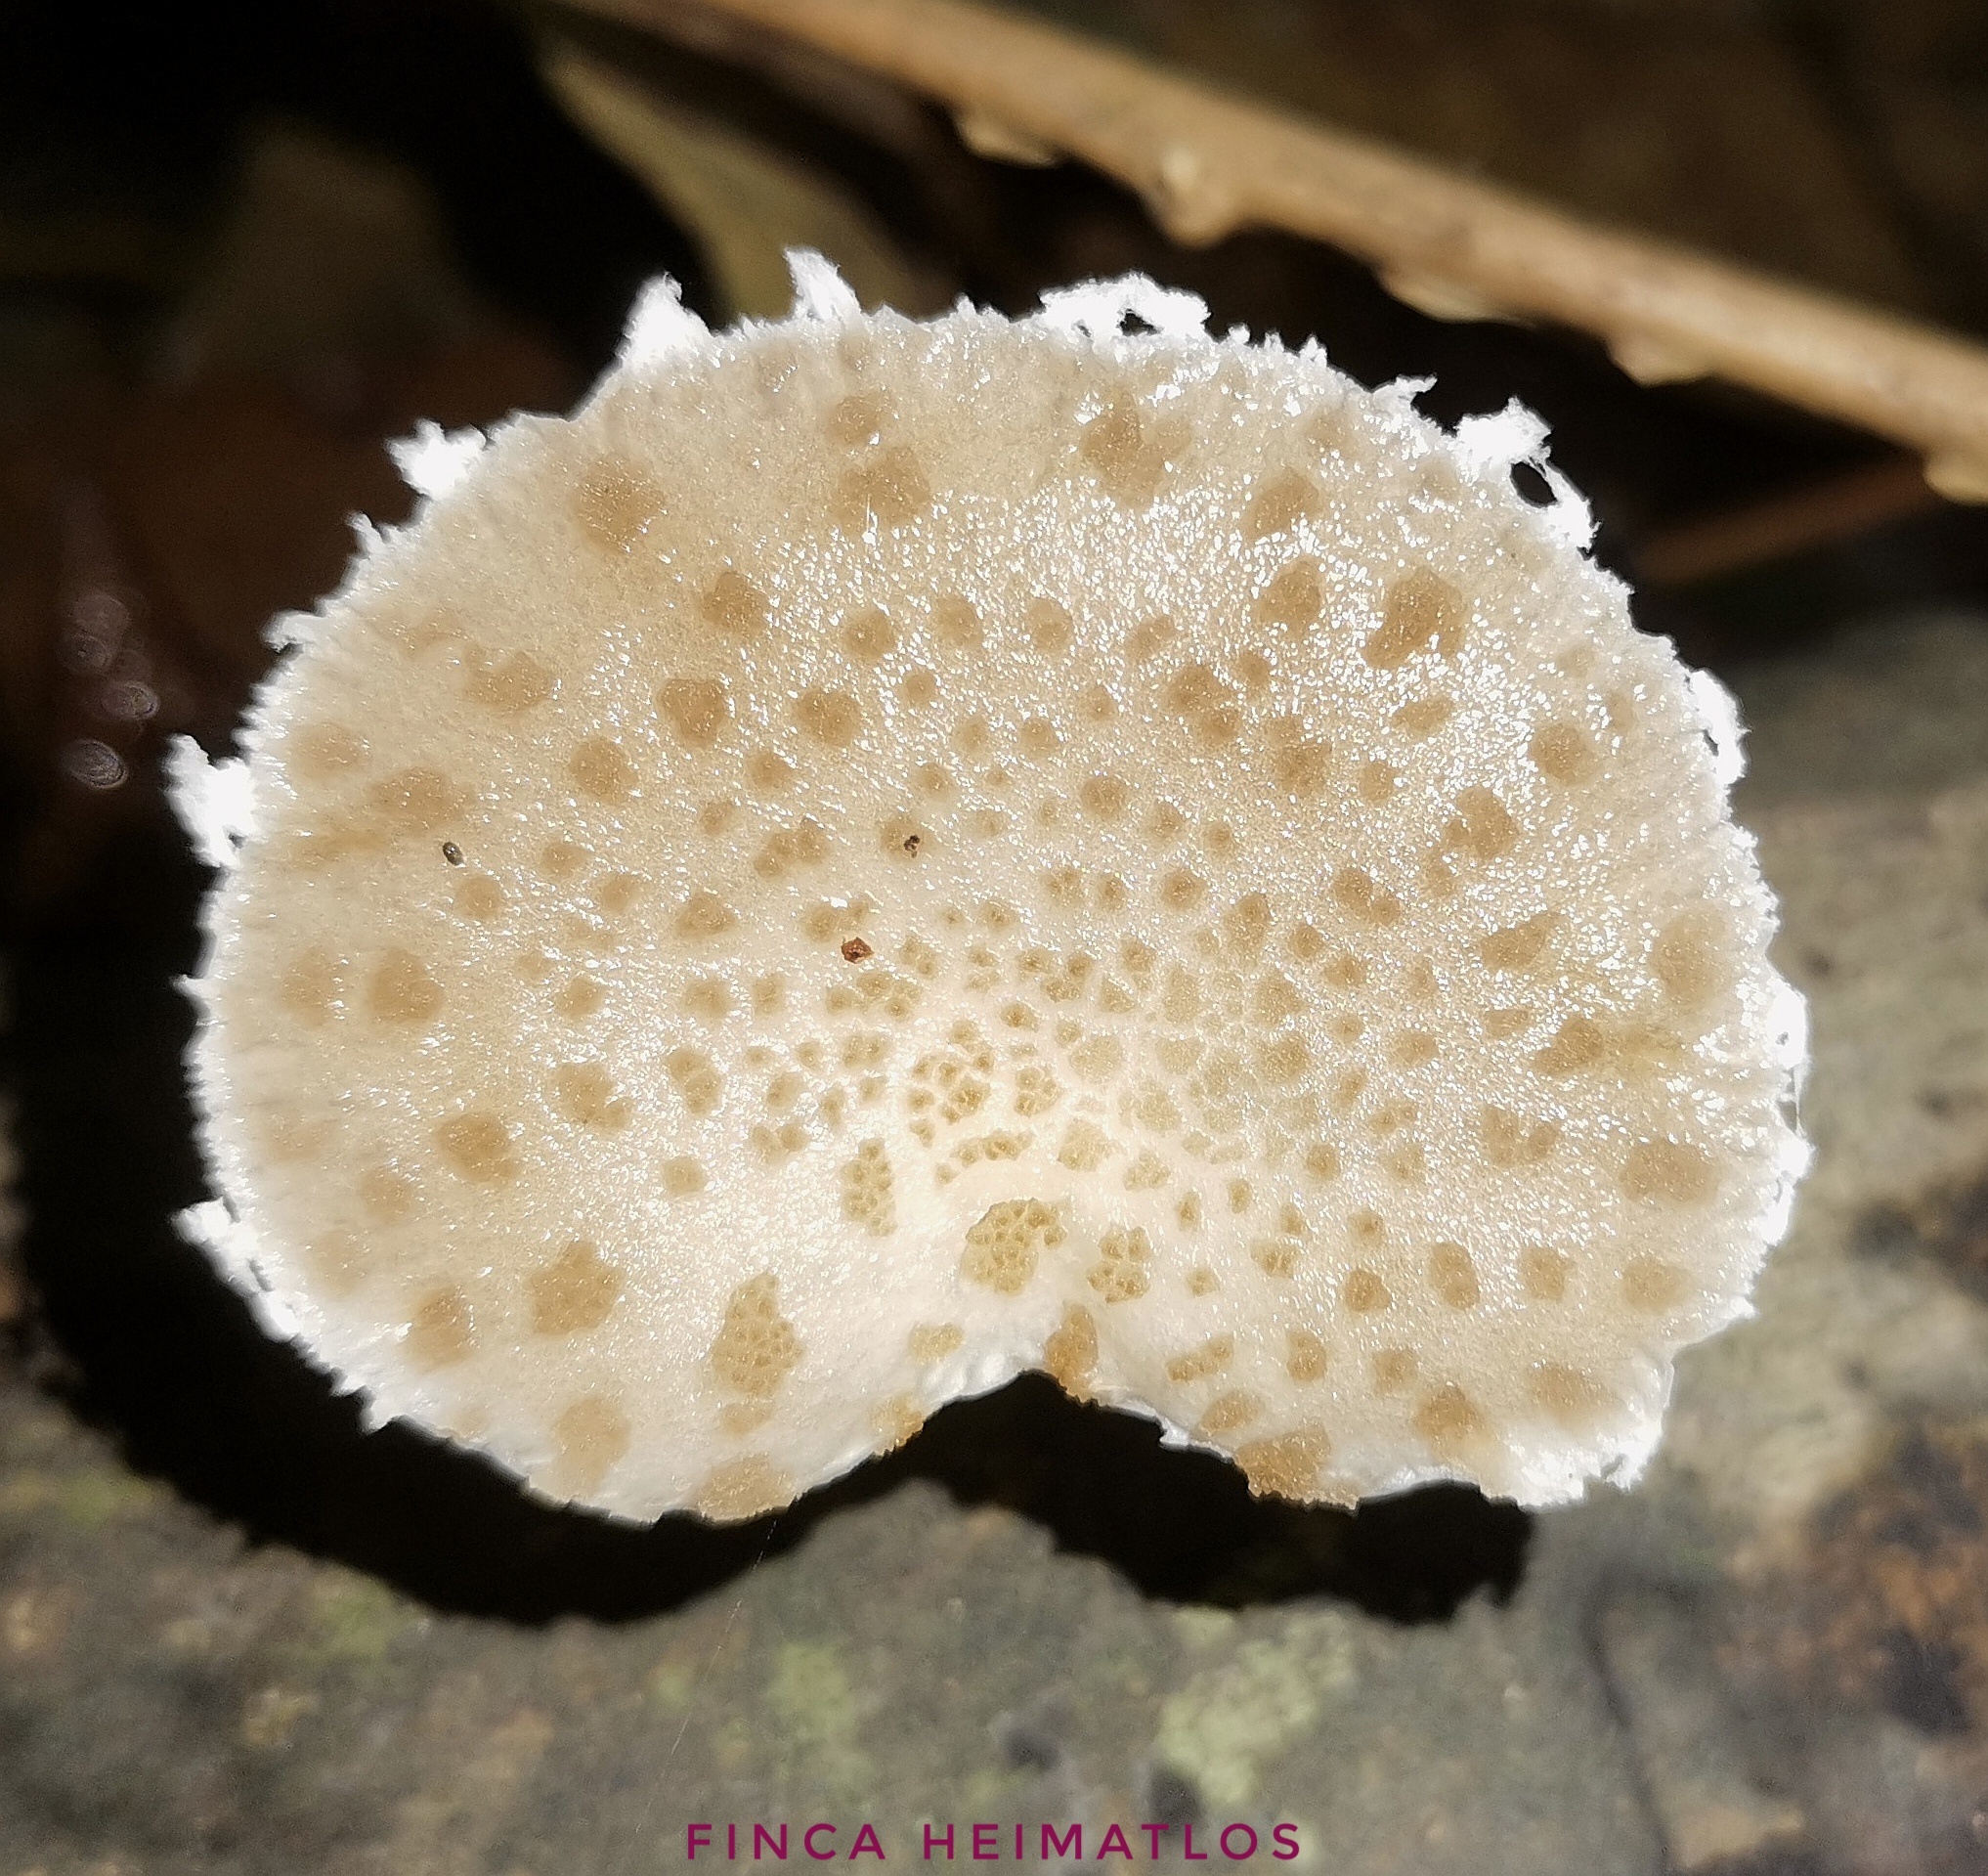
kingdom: Fungi
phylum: Basidiomycota
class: Agaricomycetes
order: Agaricales
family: Physalacriaceae
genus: Oudemansiella
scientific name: Oudemansiella canarii
